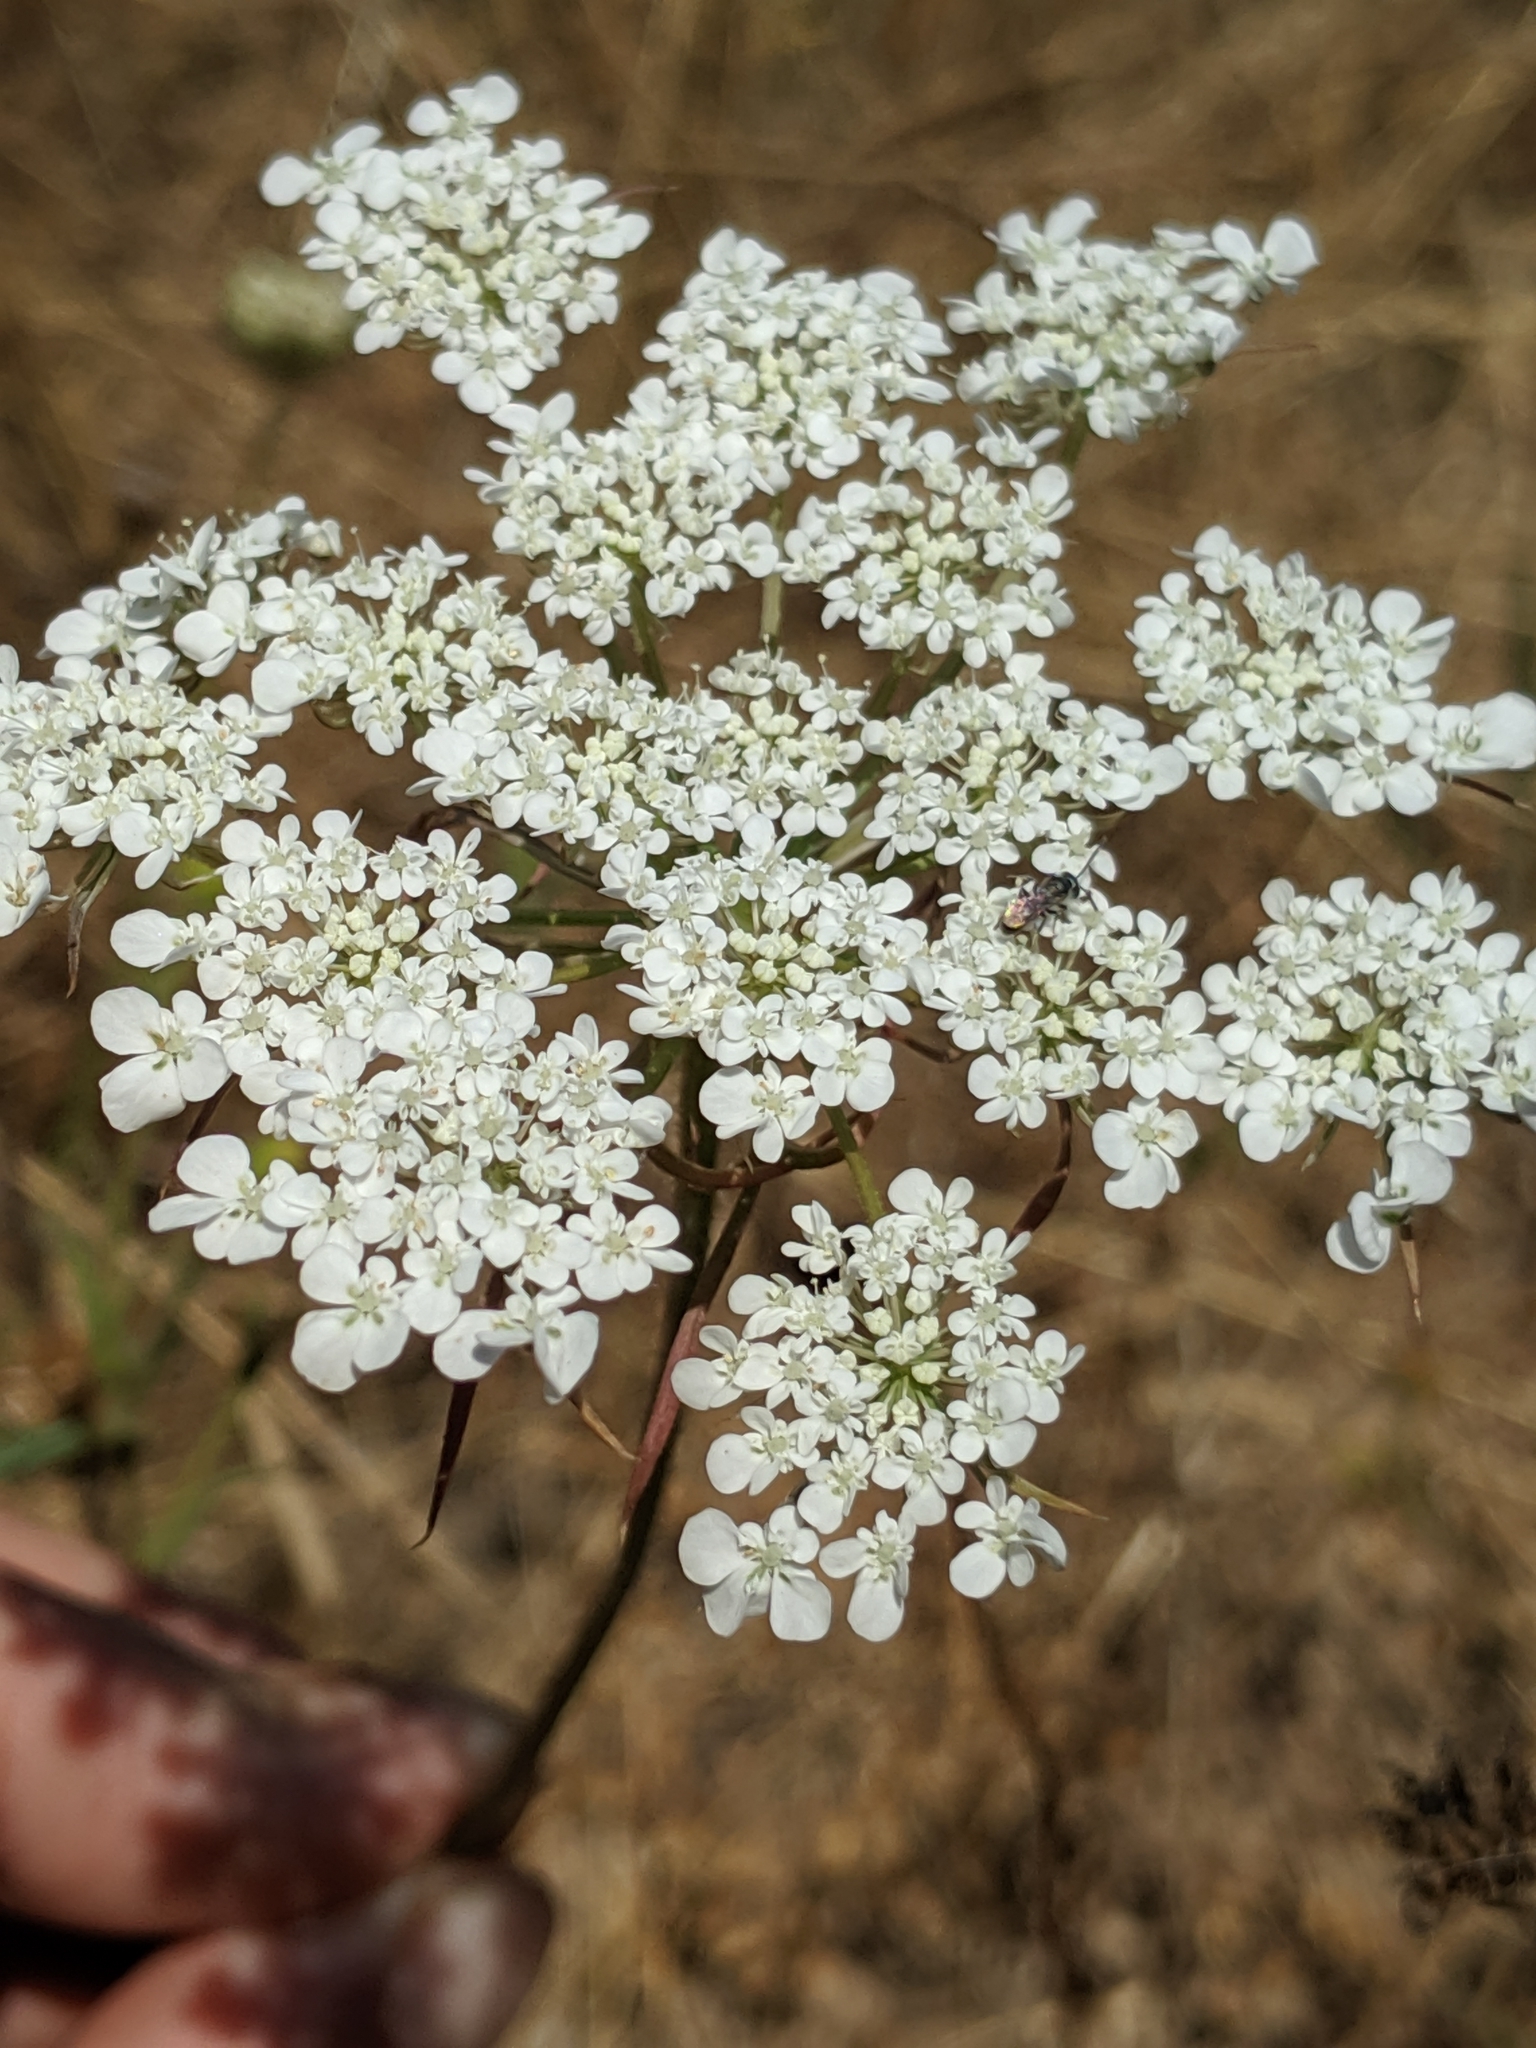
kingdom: Plantae
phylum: Tracheophyta
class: Magnoliopsida
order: Apiales
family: Apiaceae
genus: Daucus
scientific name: Daucus carota
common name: Wild carrot
